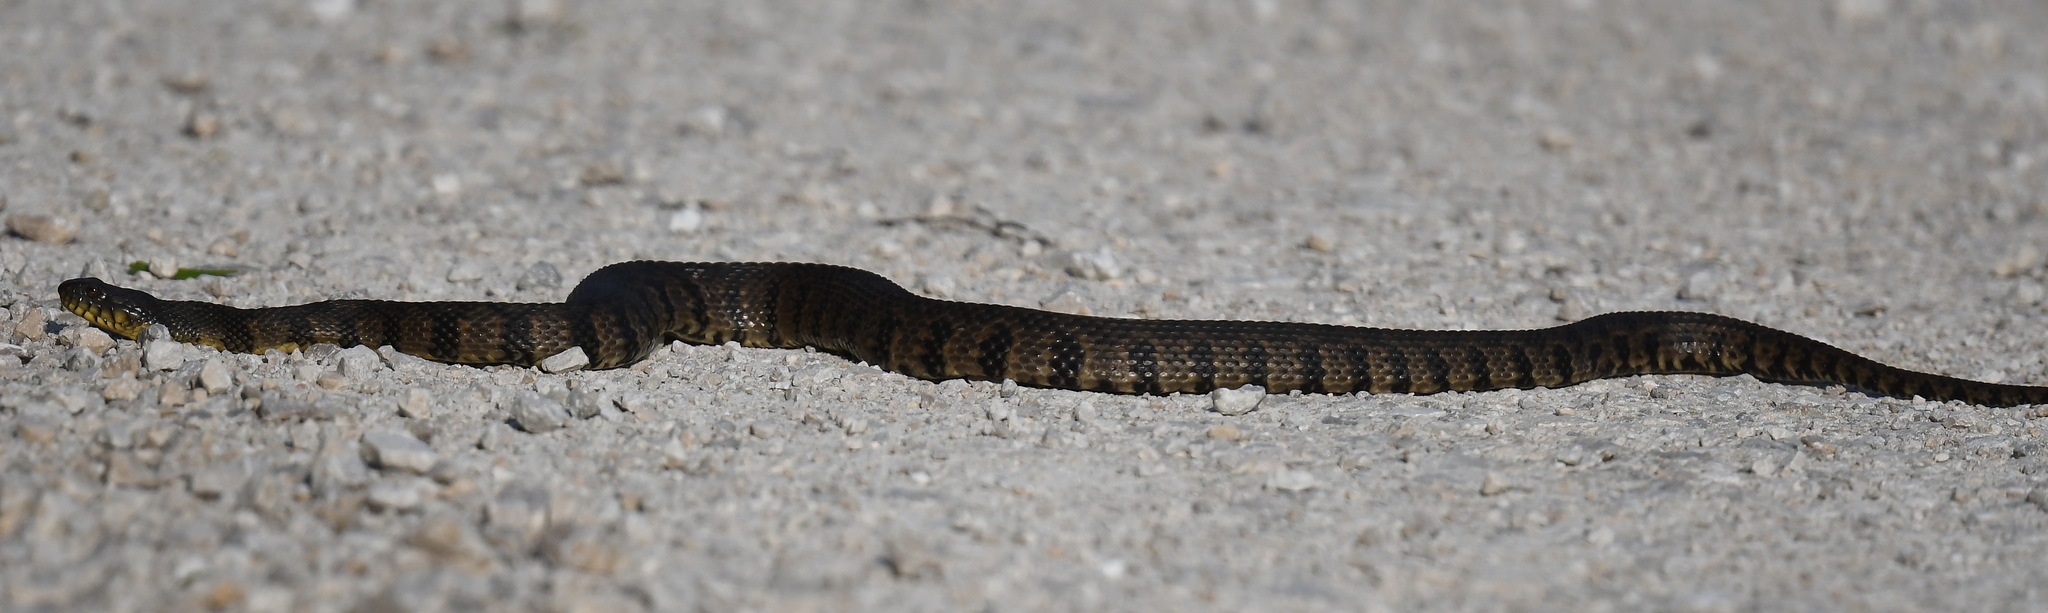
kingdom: Animalia
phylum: Chordata
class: Squamata
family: Colubridae
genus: Nerodia
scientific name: Nerodia rhombifer
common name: Diamondback water snake
